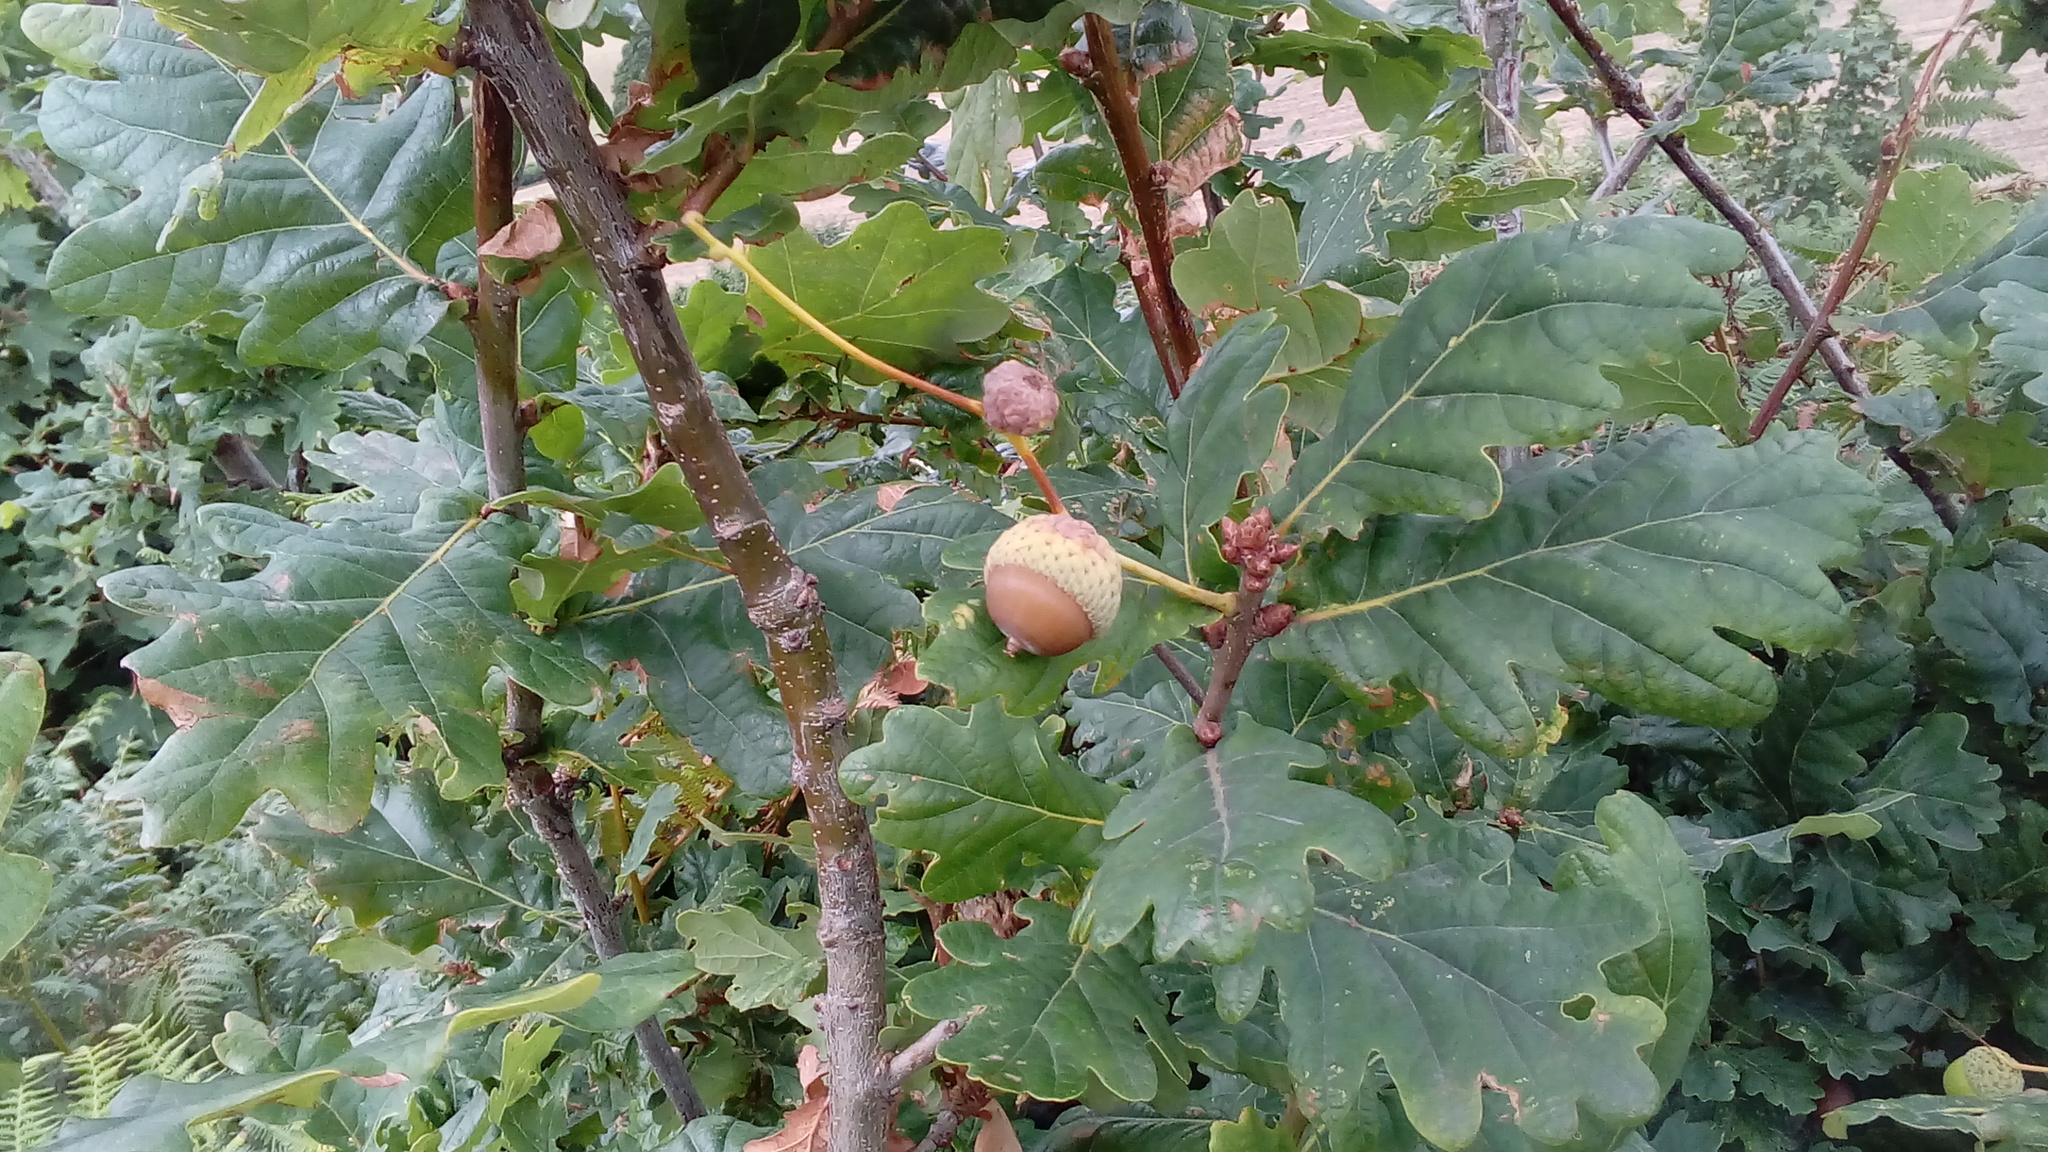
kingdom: Plantae
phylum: Tracheophyta
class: Magnoliopsida
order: Fagales
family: Fagaceae
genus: Quercus
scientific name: Quercus robur
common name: Pedunculate oak
